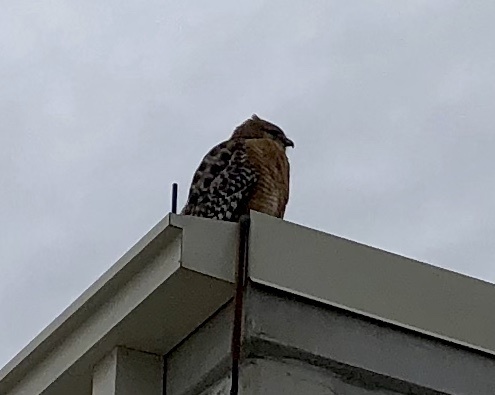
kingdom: Animalia
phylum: Chordata
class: Aves
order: Accipitriformes
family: Accipitridae
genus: Buteo
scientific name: Buteo lineatus
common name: Red-shouldered hawk
